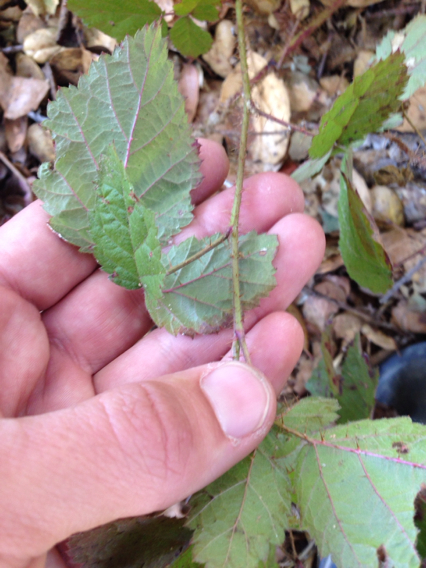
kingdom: Plantae
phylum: Tracheophyta
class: Magnoliopsida
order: Rosales
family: Rosaceae
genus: Rubus
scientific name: Rubus ursinus
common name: Pacific blackberry
